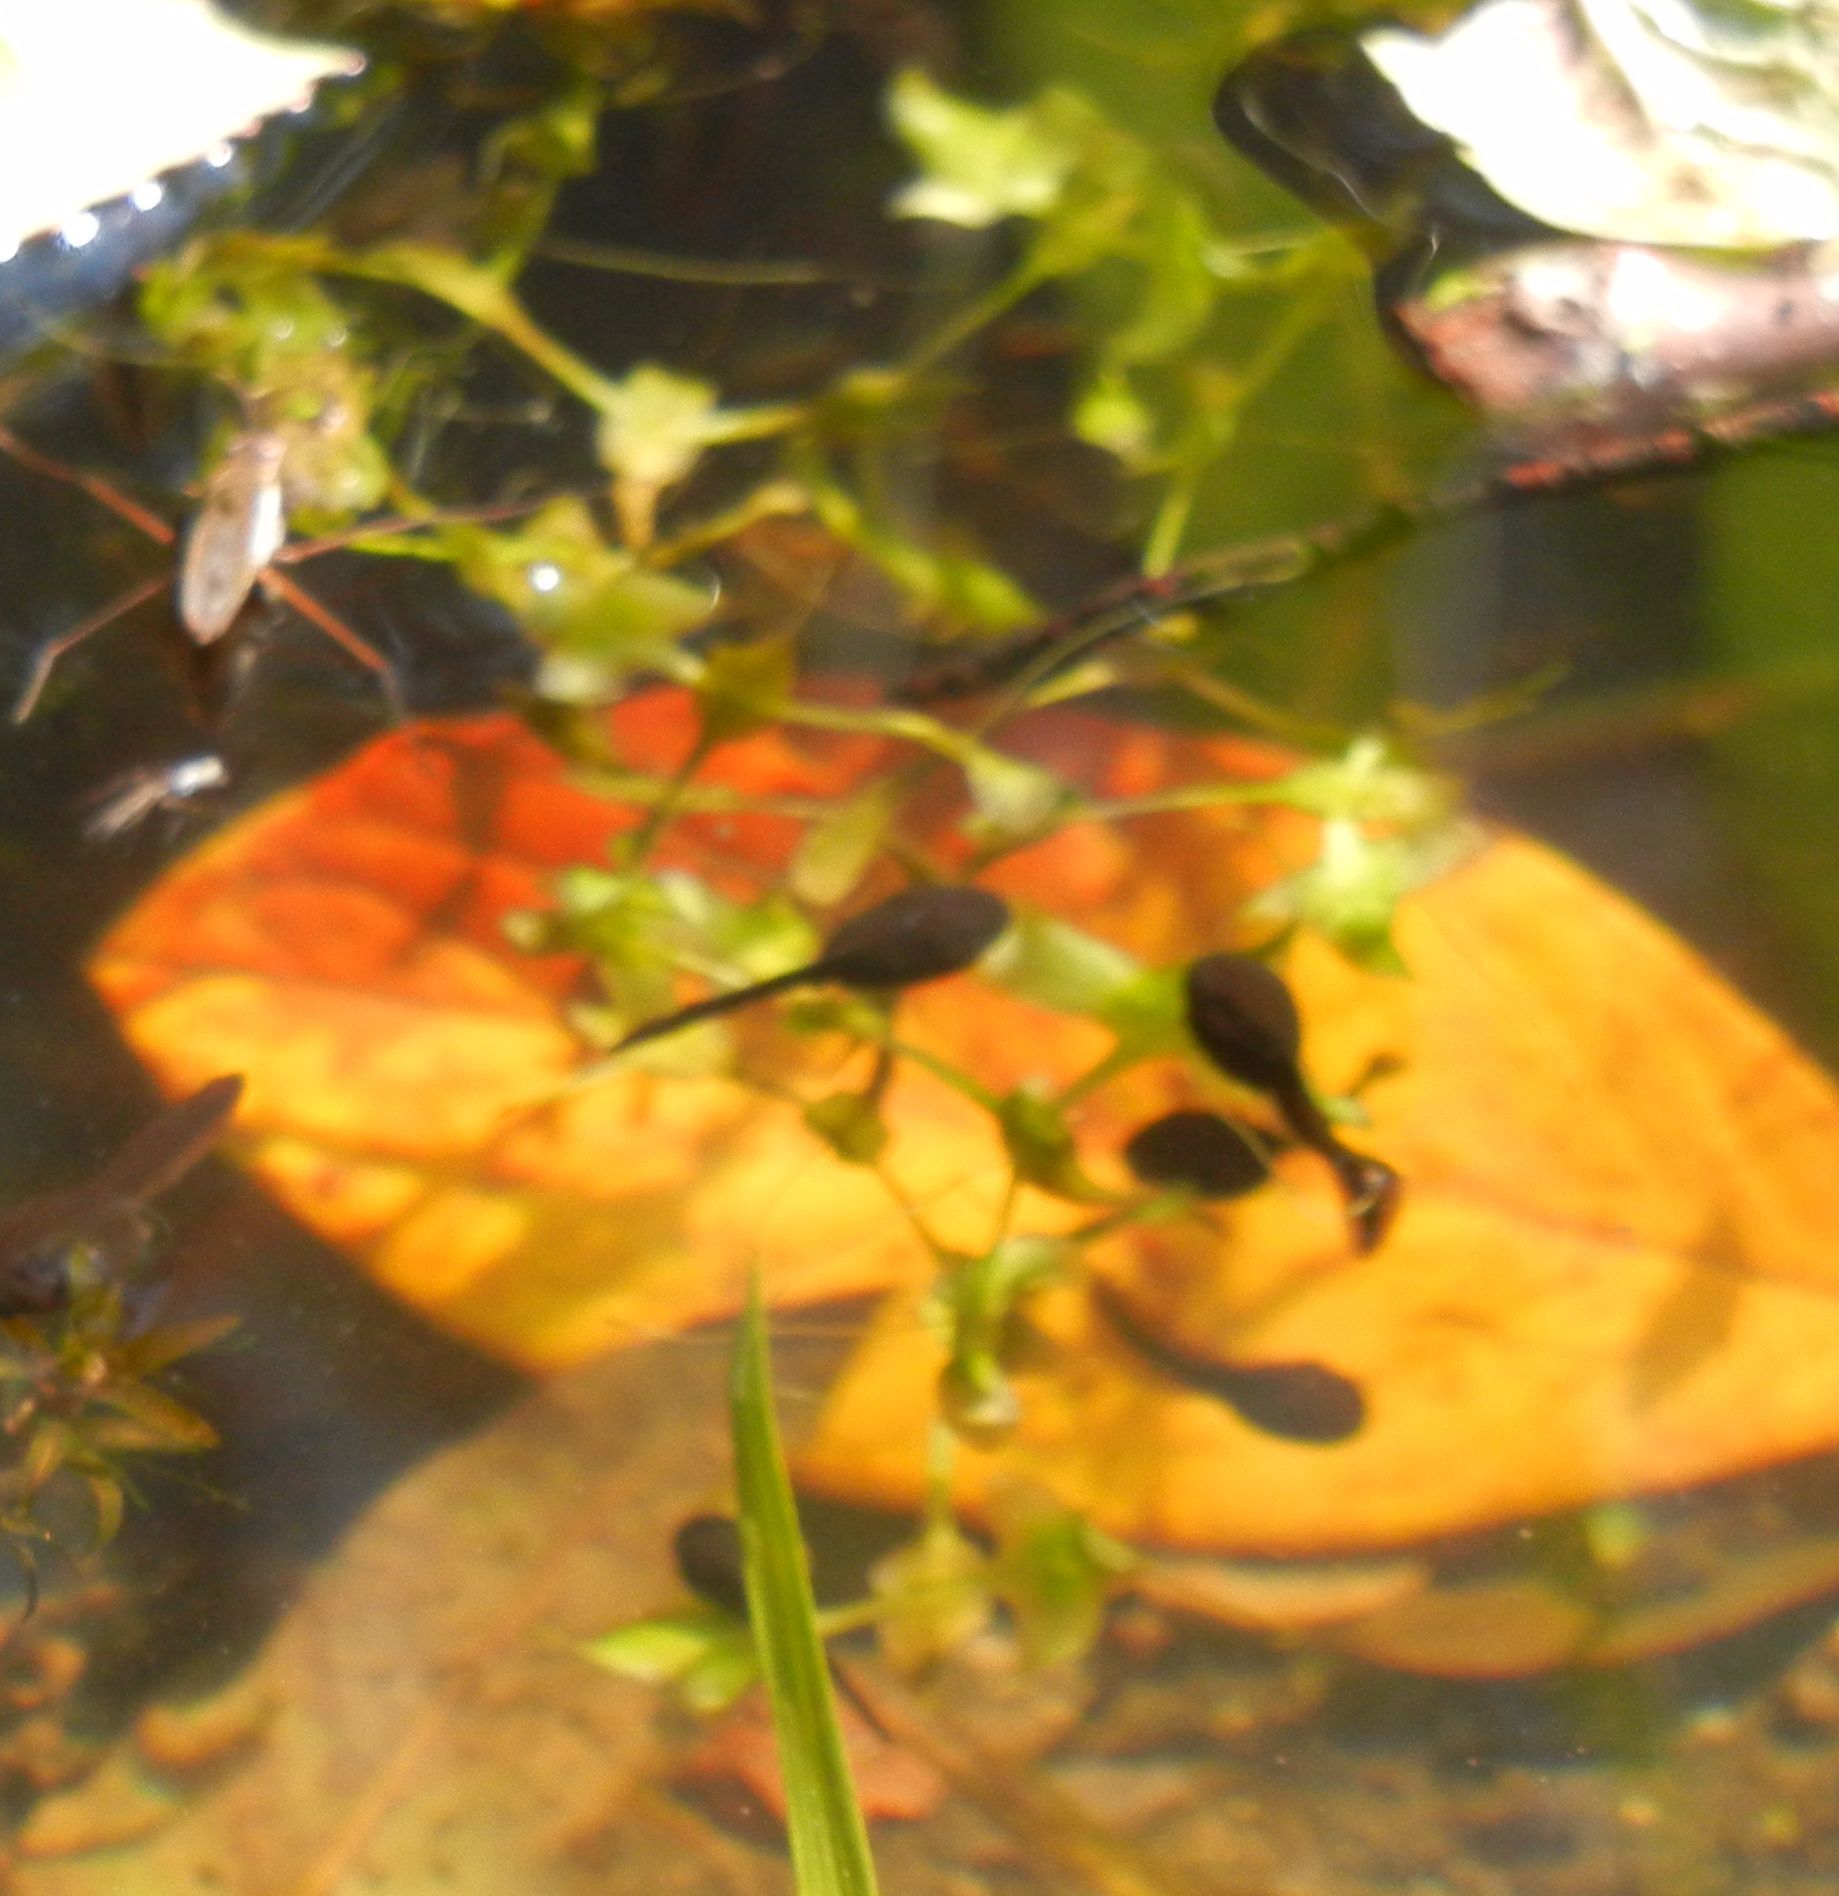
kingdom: Plantae
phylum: Tracheophyta
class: Liliopsida
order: Alismatales
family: Araceae
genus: Lemna
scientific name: Lemna trisulca
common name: Ivy-leaved duckweed
